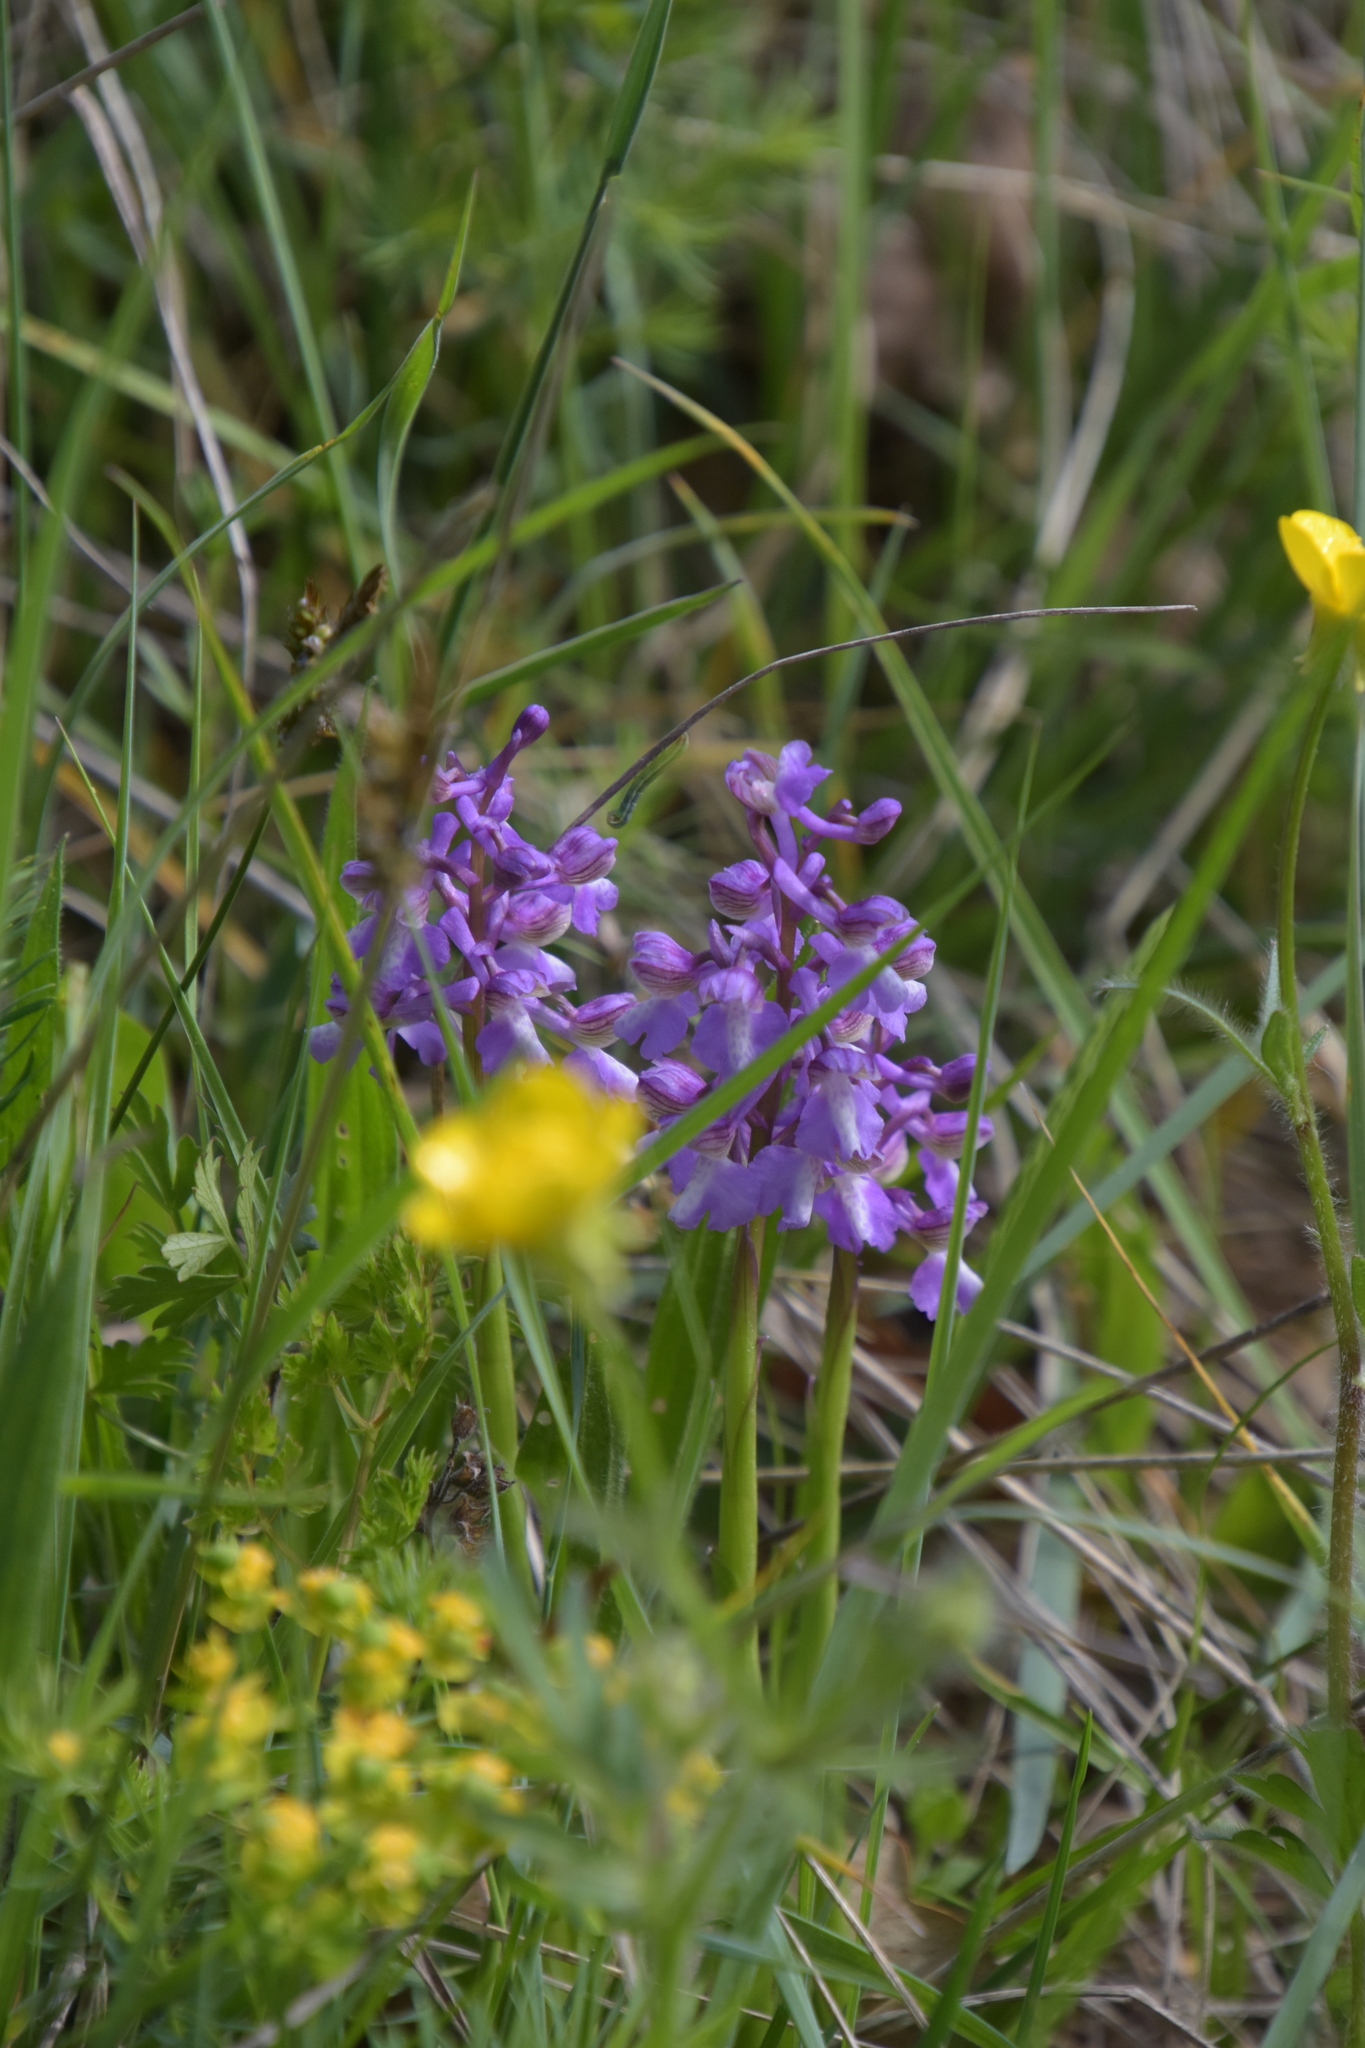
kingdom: Plantae
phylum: Tracheophyta
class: Liliopsida
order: Asparagales
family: Orchidaceae
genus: Anacamptis
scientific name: Anacamptis morio
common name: Green-winged orchid
